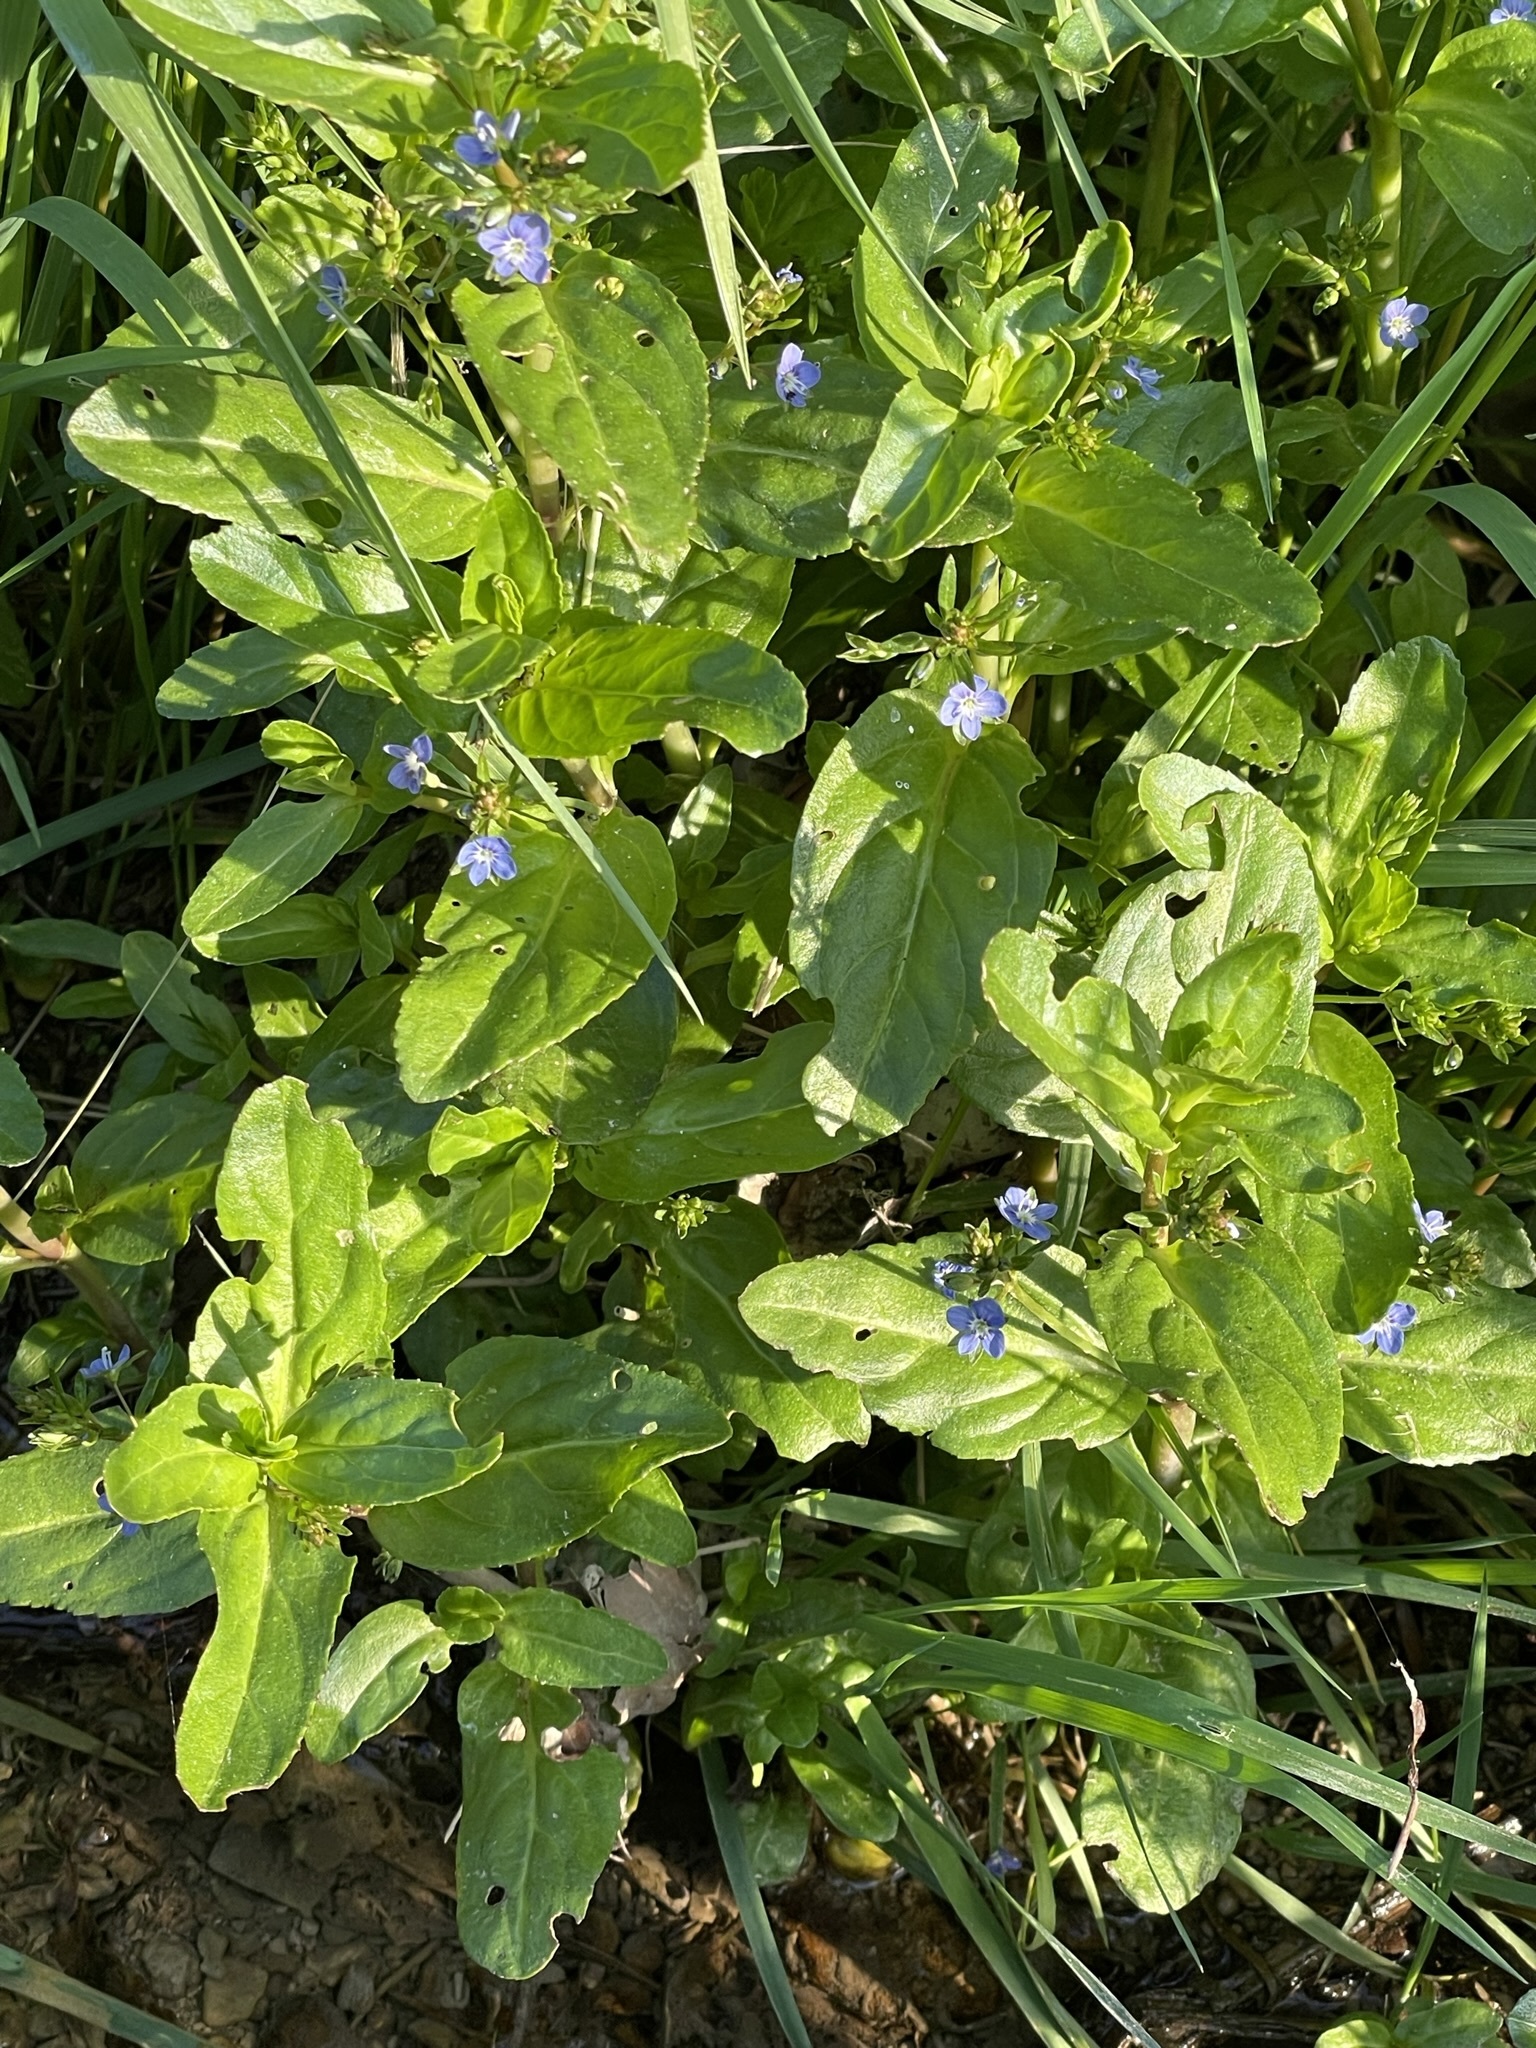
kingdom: Plantae
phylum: Tracheophyta
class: Magnoliopsida
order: Lamiales
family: Plantaginaceae
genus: Veronica
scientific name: Veronica beccabunga
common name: Brooklime
